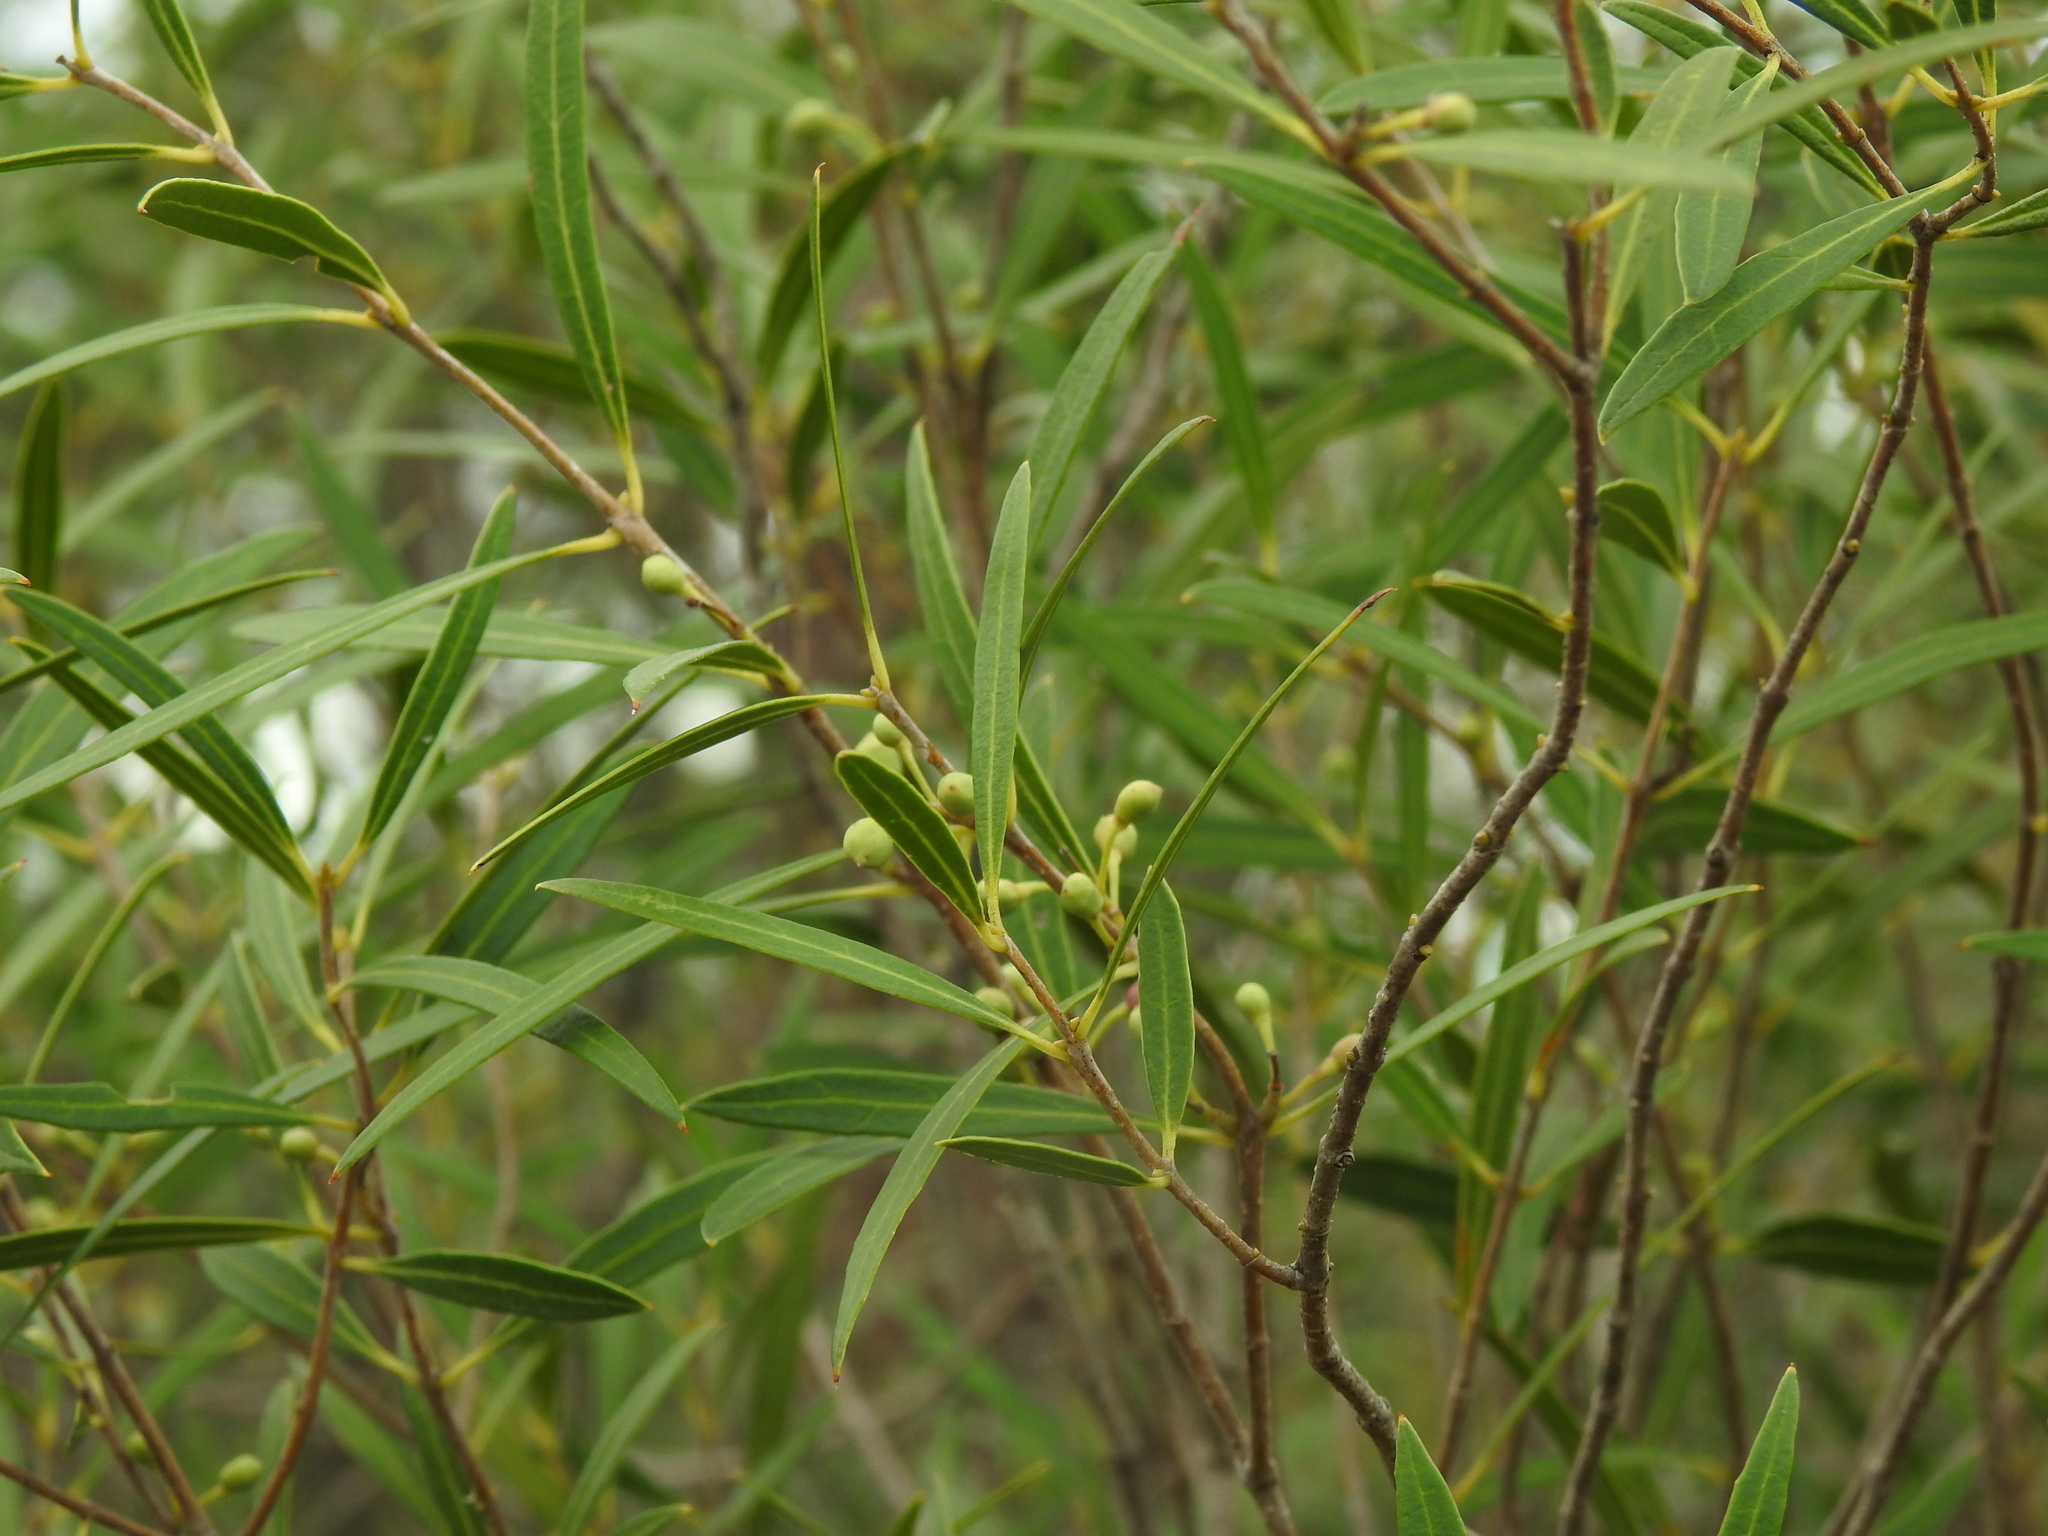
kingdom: Plantae
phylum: Tracheophyta
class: Magnoliopsida
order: Lamiales
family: Oleaceae
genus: Phillyrea
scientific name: Phillyrea angustifolia
